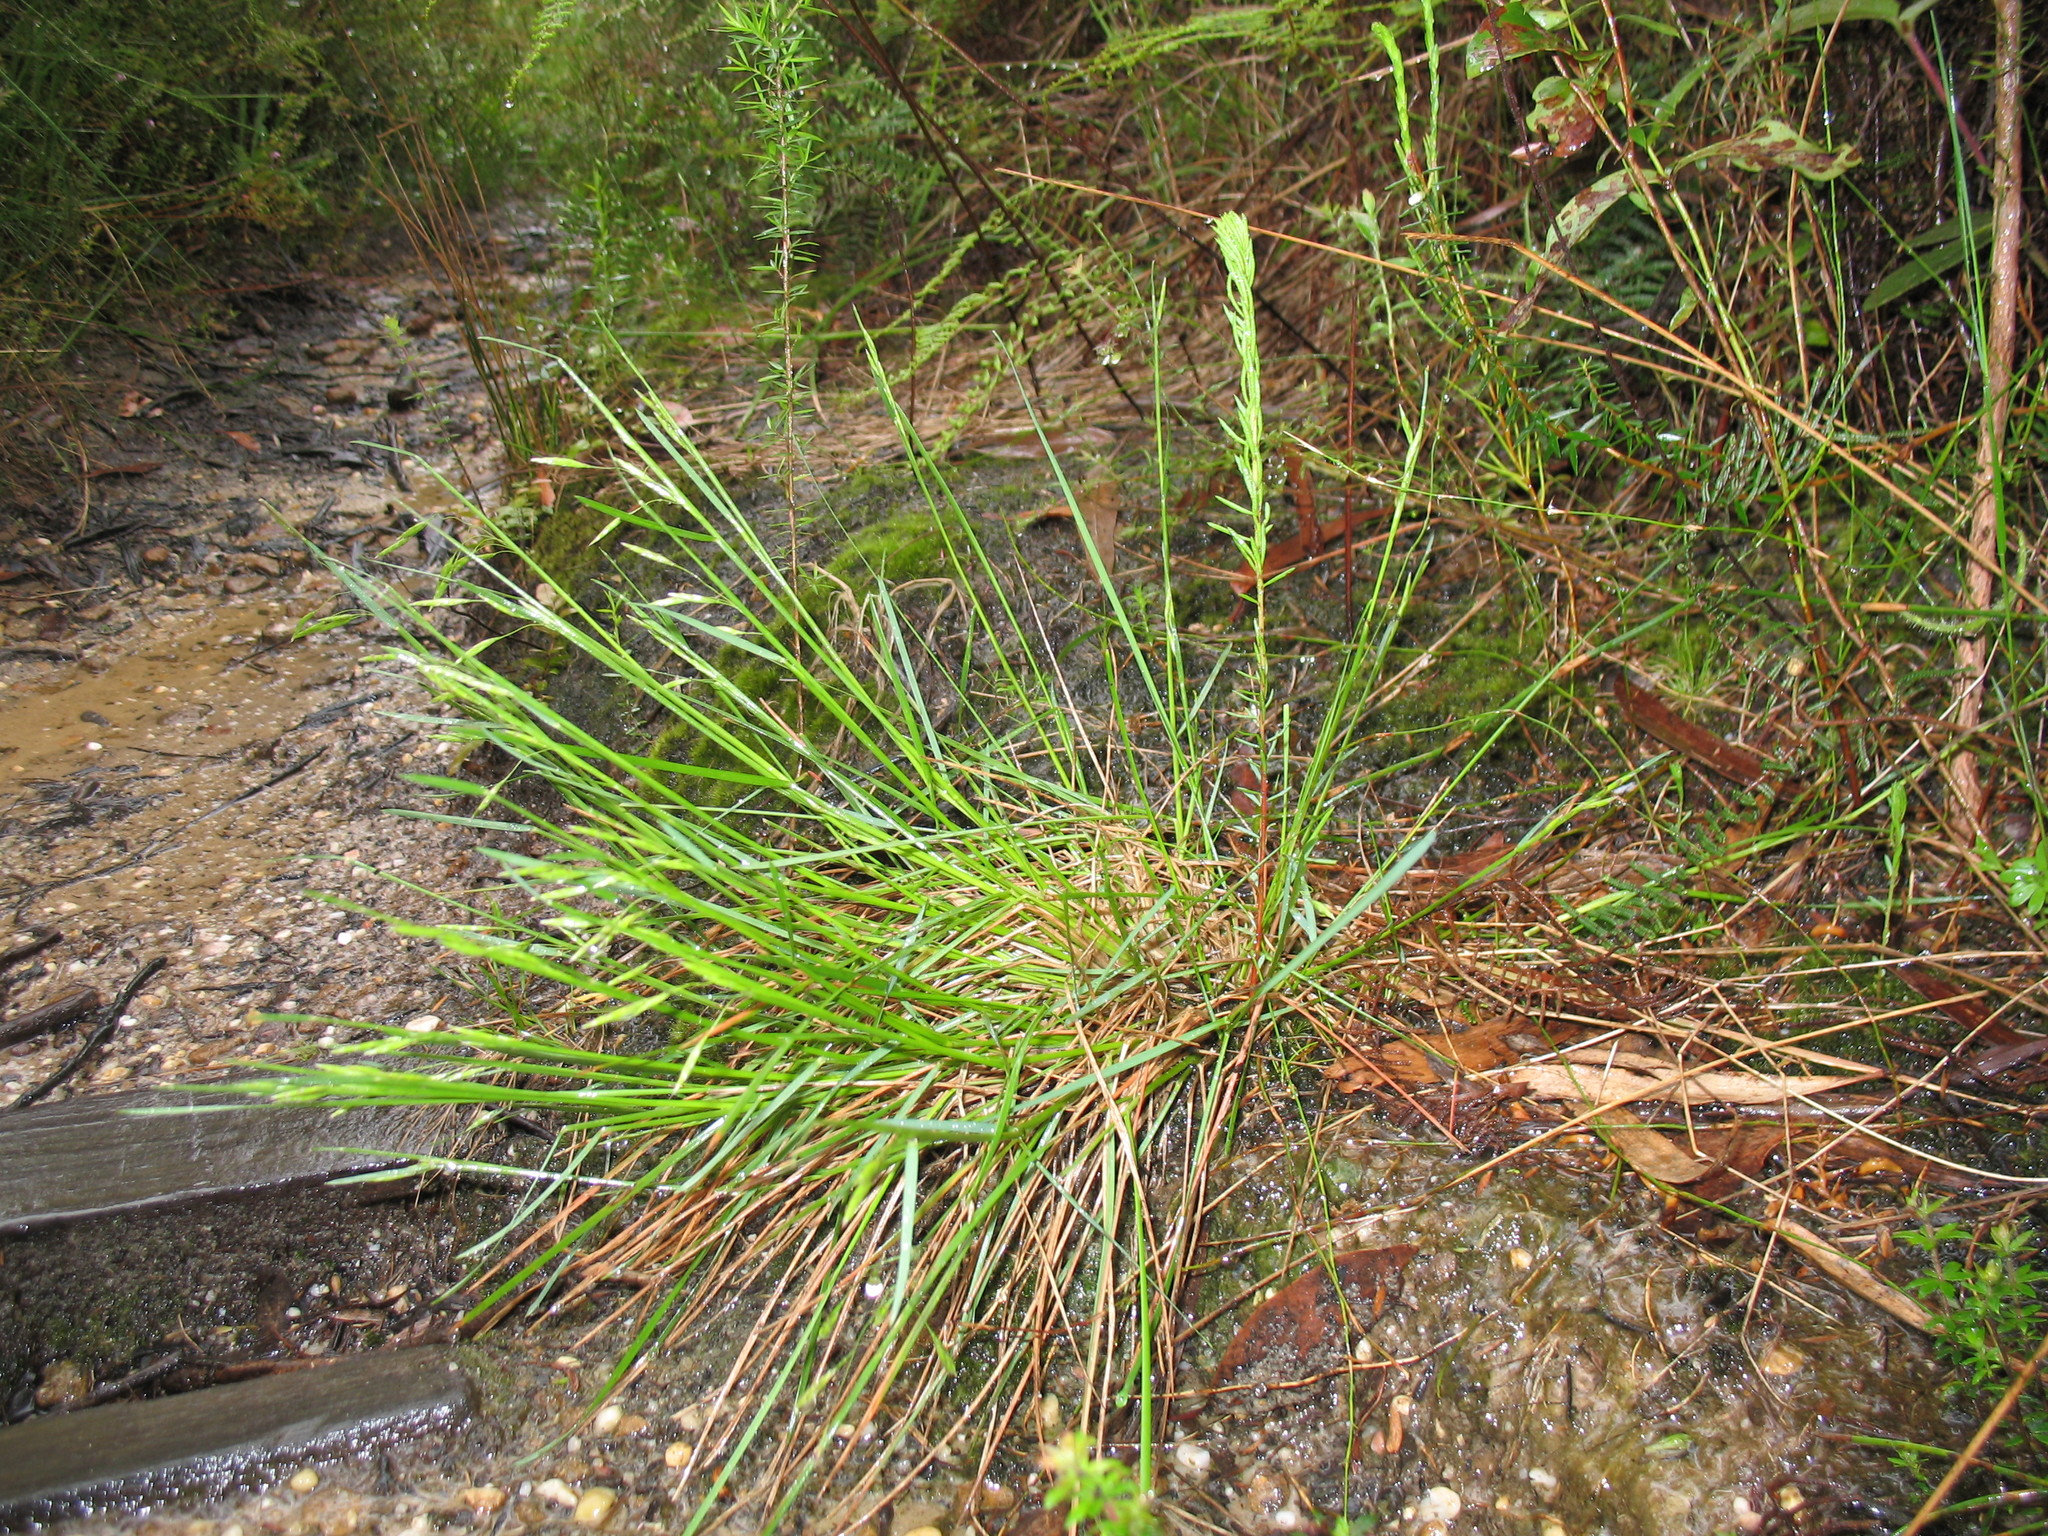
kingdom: Plantae
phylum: Tracheophyta
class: Liliopsida
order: Poales
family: Poaceae
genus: Notochloe
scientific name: Notochloe microdon
